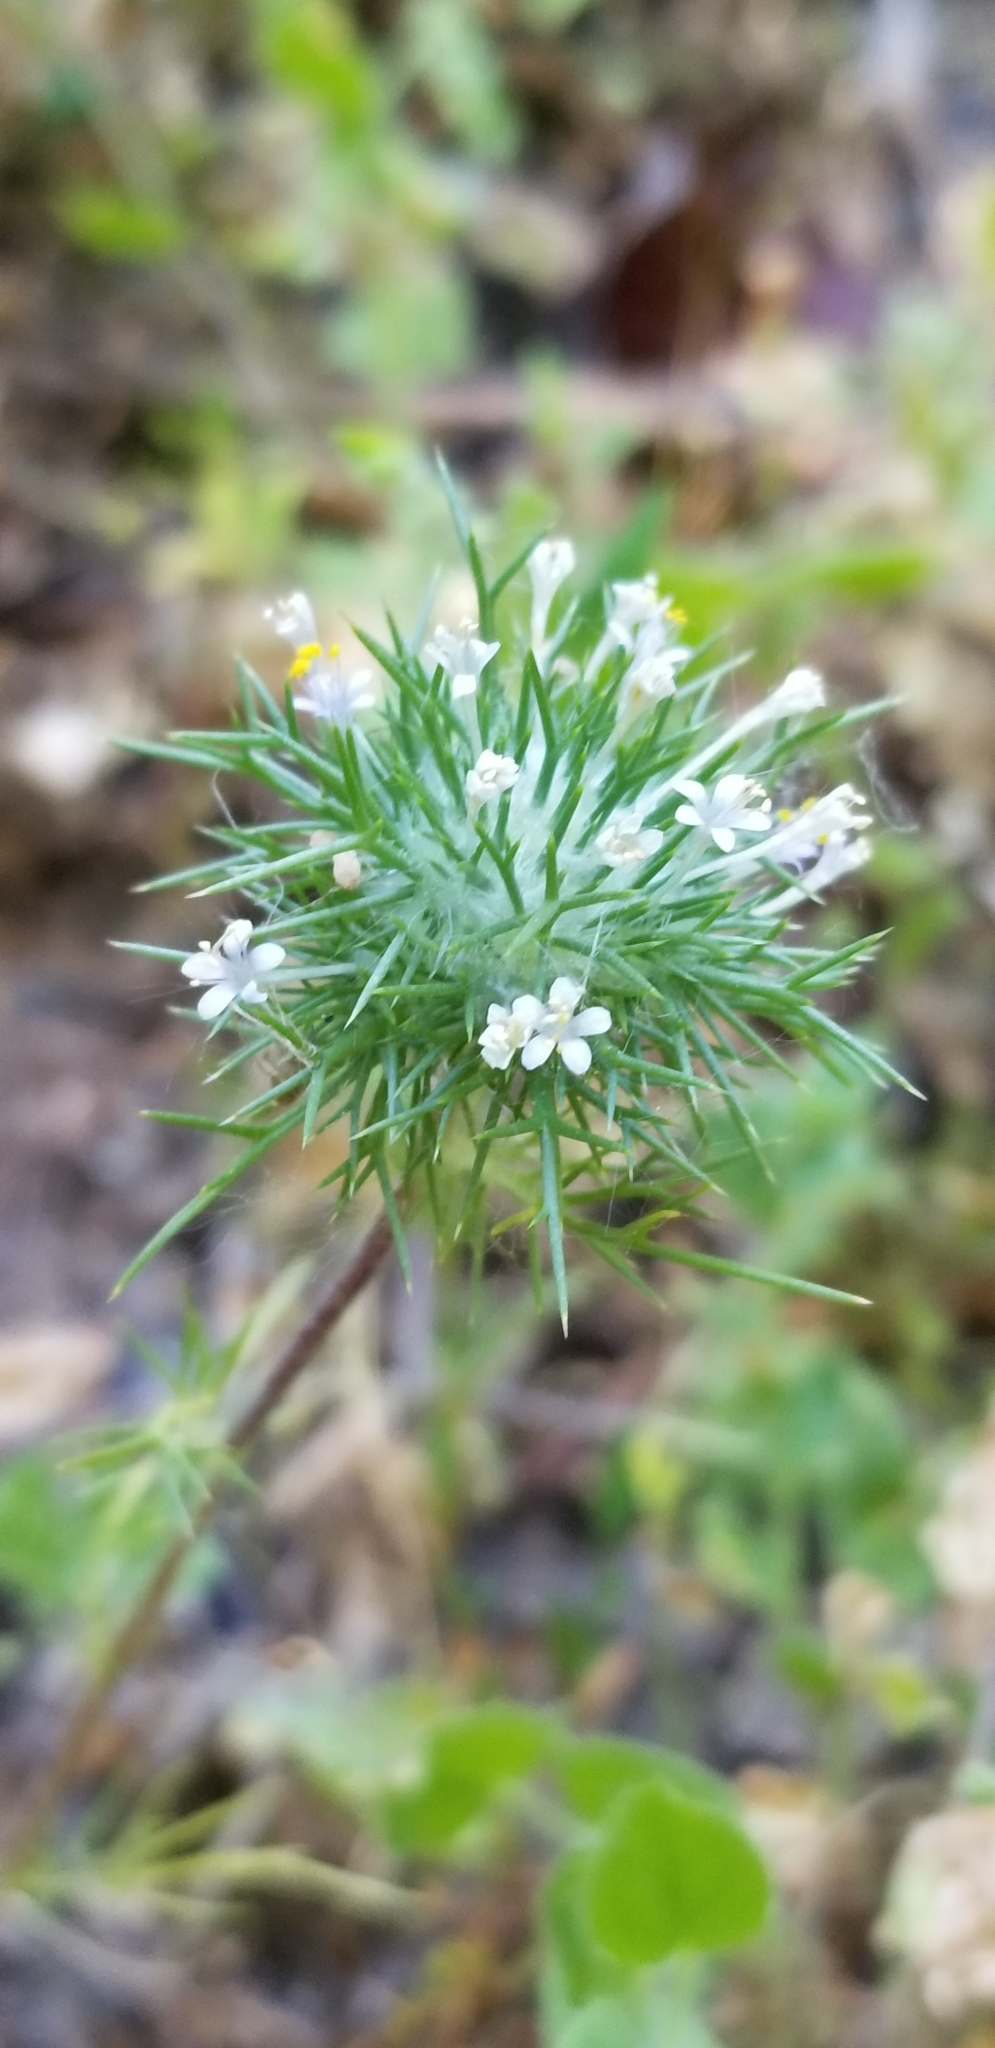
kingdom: Plantae
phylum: Tracheophyta
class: Magnoliopsida
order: Ericales
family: Polemoniaceae
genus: Navarretia
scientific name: Navarretia intertexta
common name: Needle-leaved navarretia
